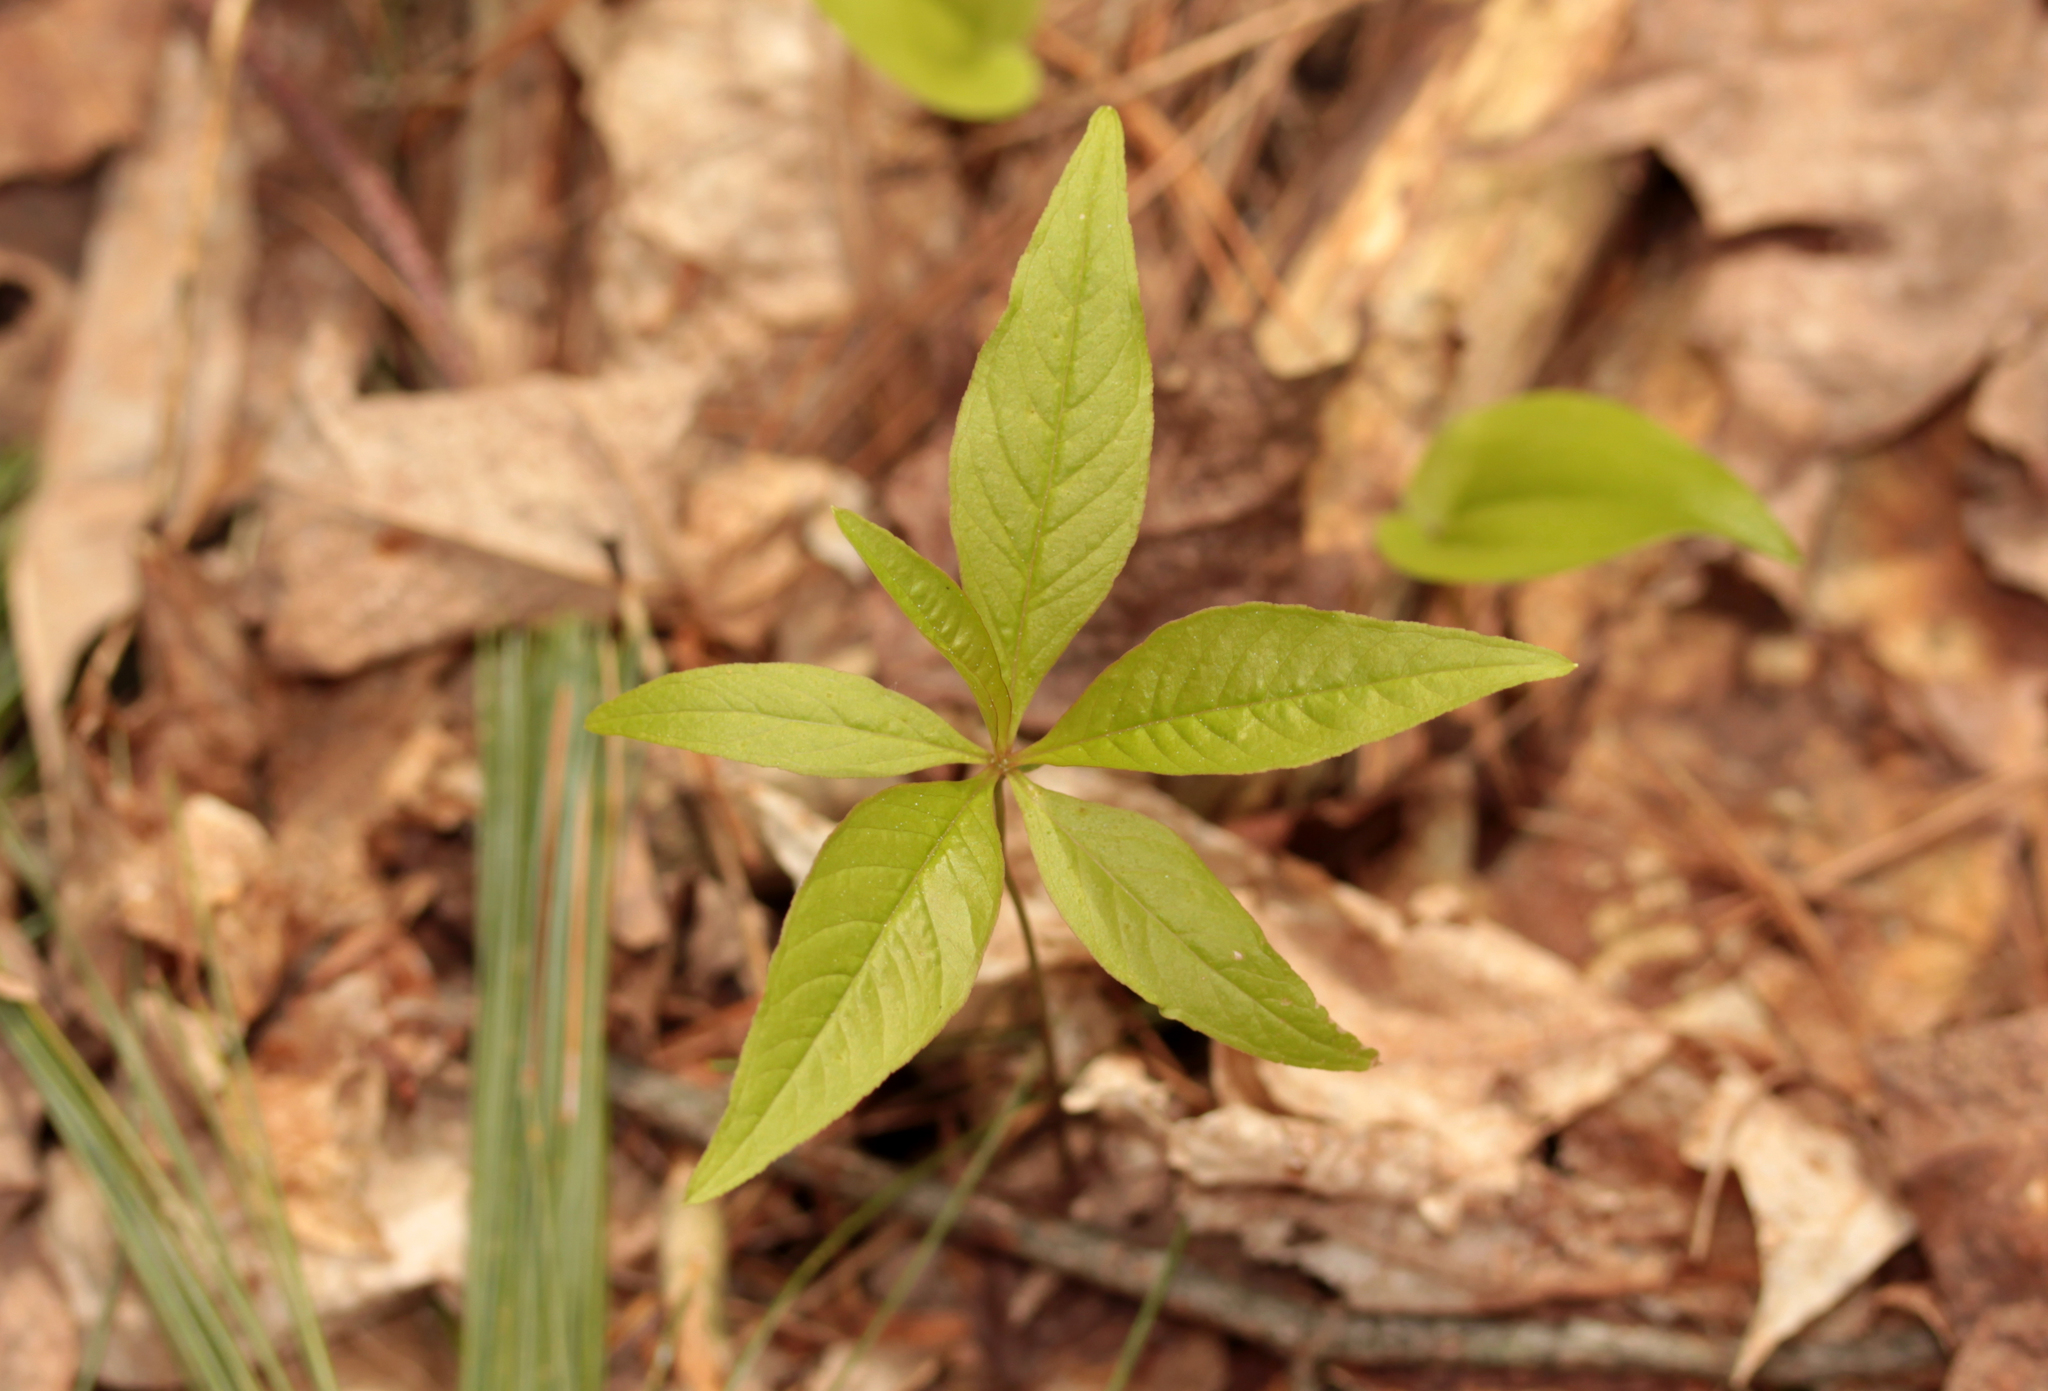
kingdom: Plantae
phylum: Tracheophyta
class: Magnoliopsida
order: Ericales
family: Primulaceae
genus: Lysimachia
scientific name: Lysimachia borealis
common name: American starflower
